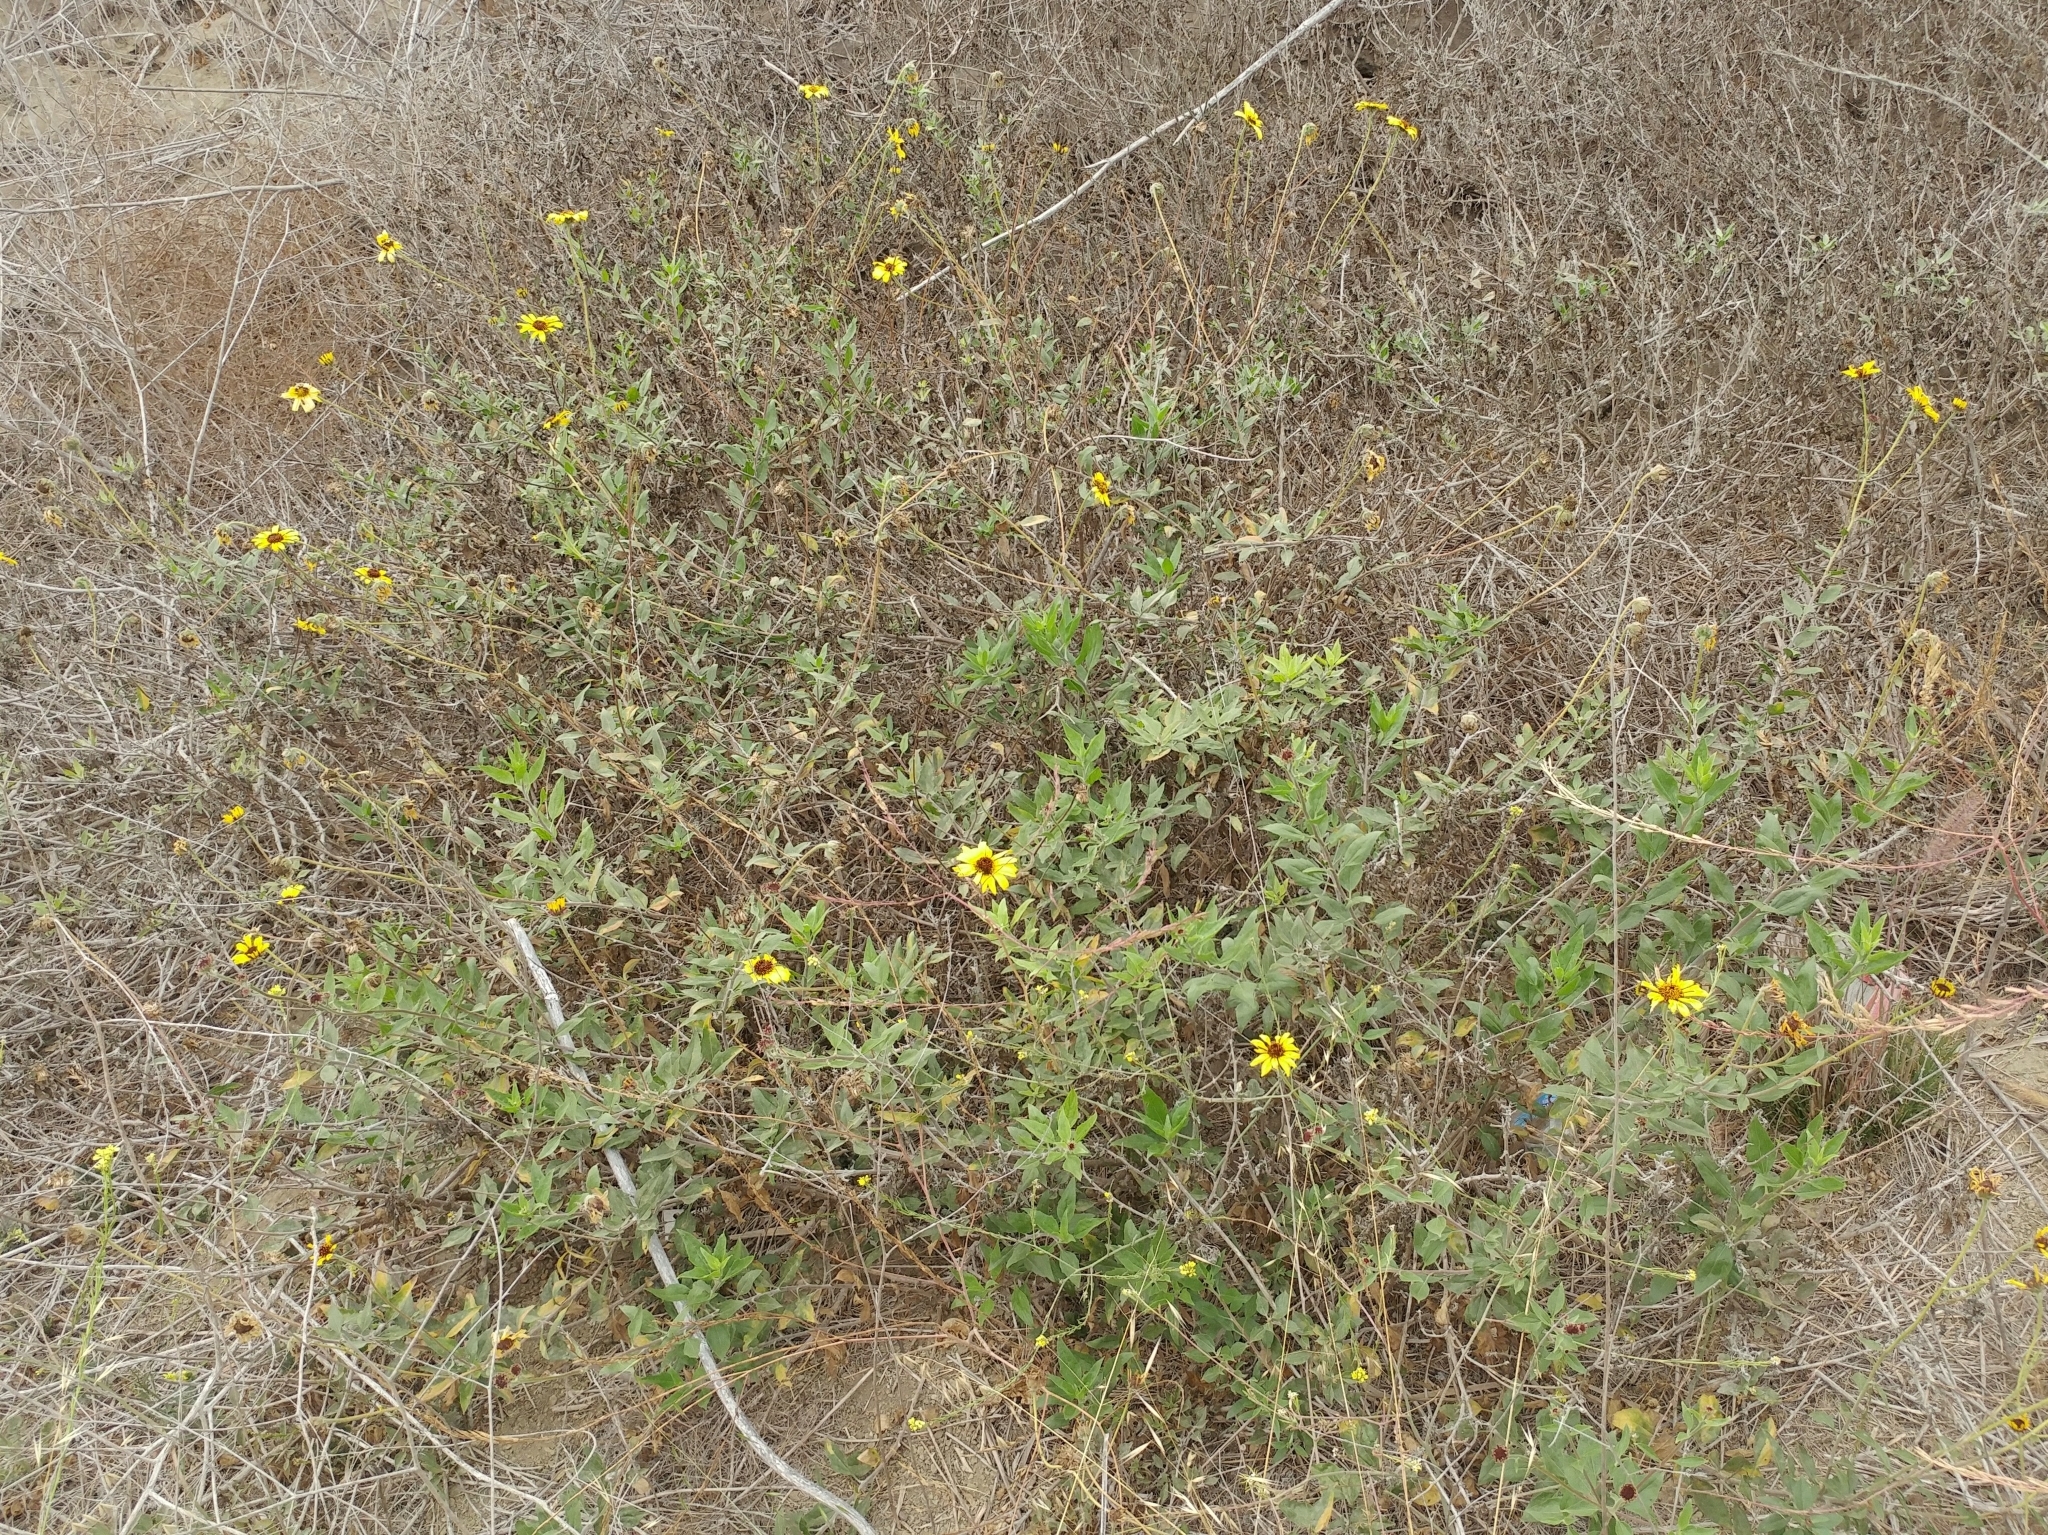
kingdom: Plantae
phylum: Tracheophyta
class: Magnoliopsida
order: Asterales
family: Asteraceae
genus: Encelia
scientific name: Encelia californica
